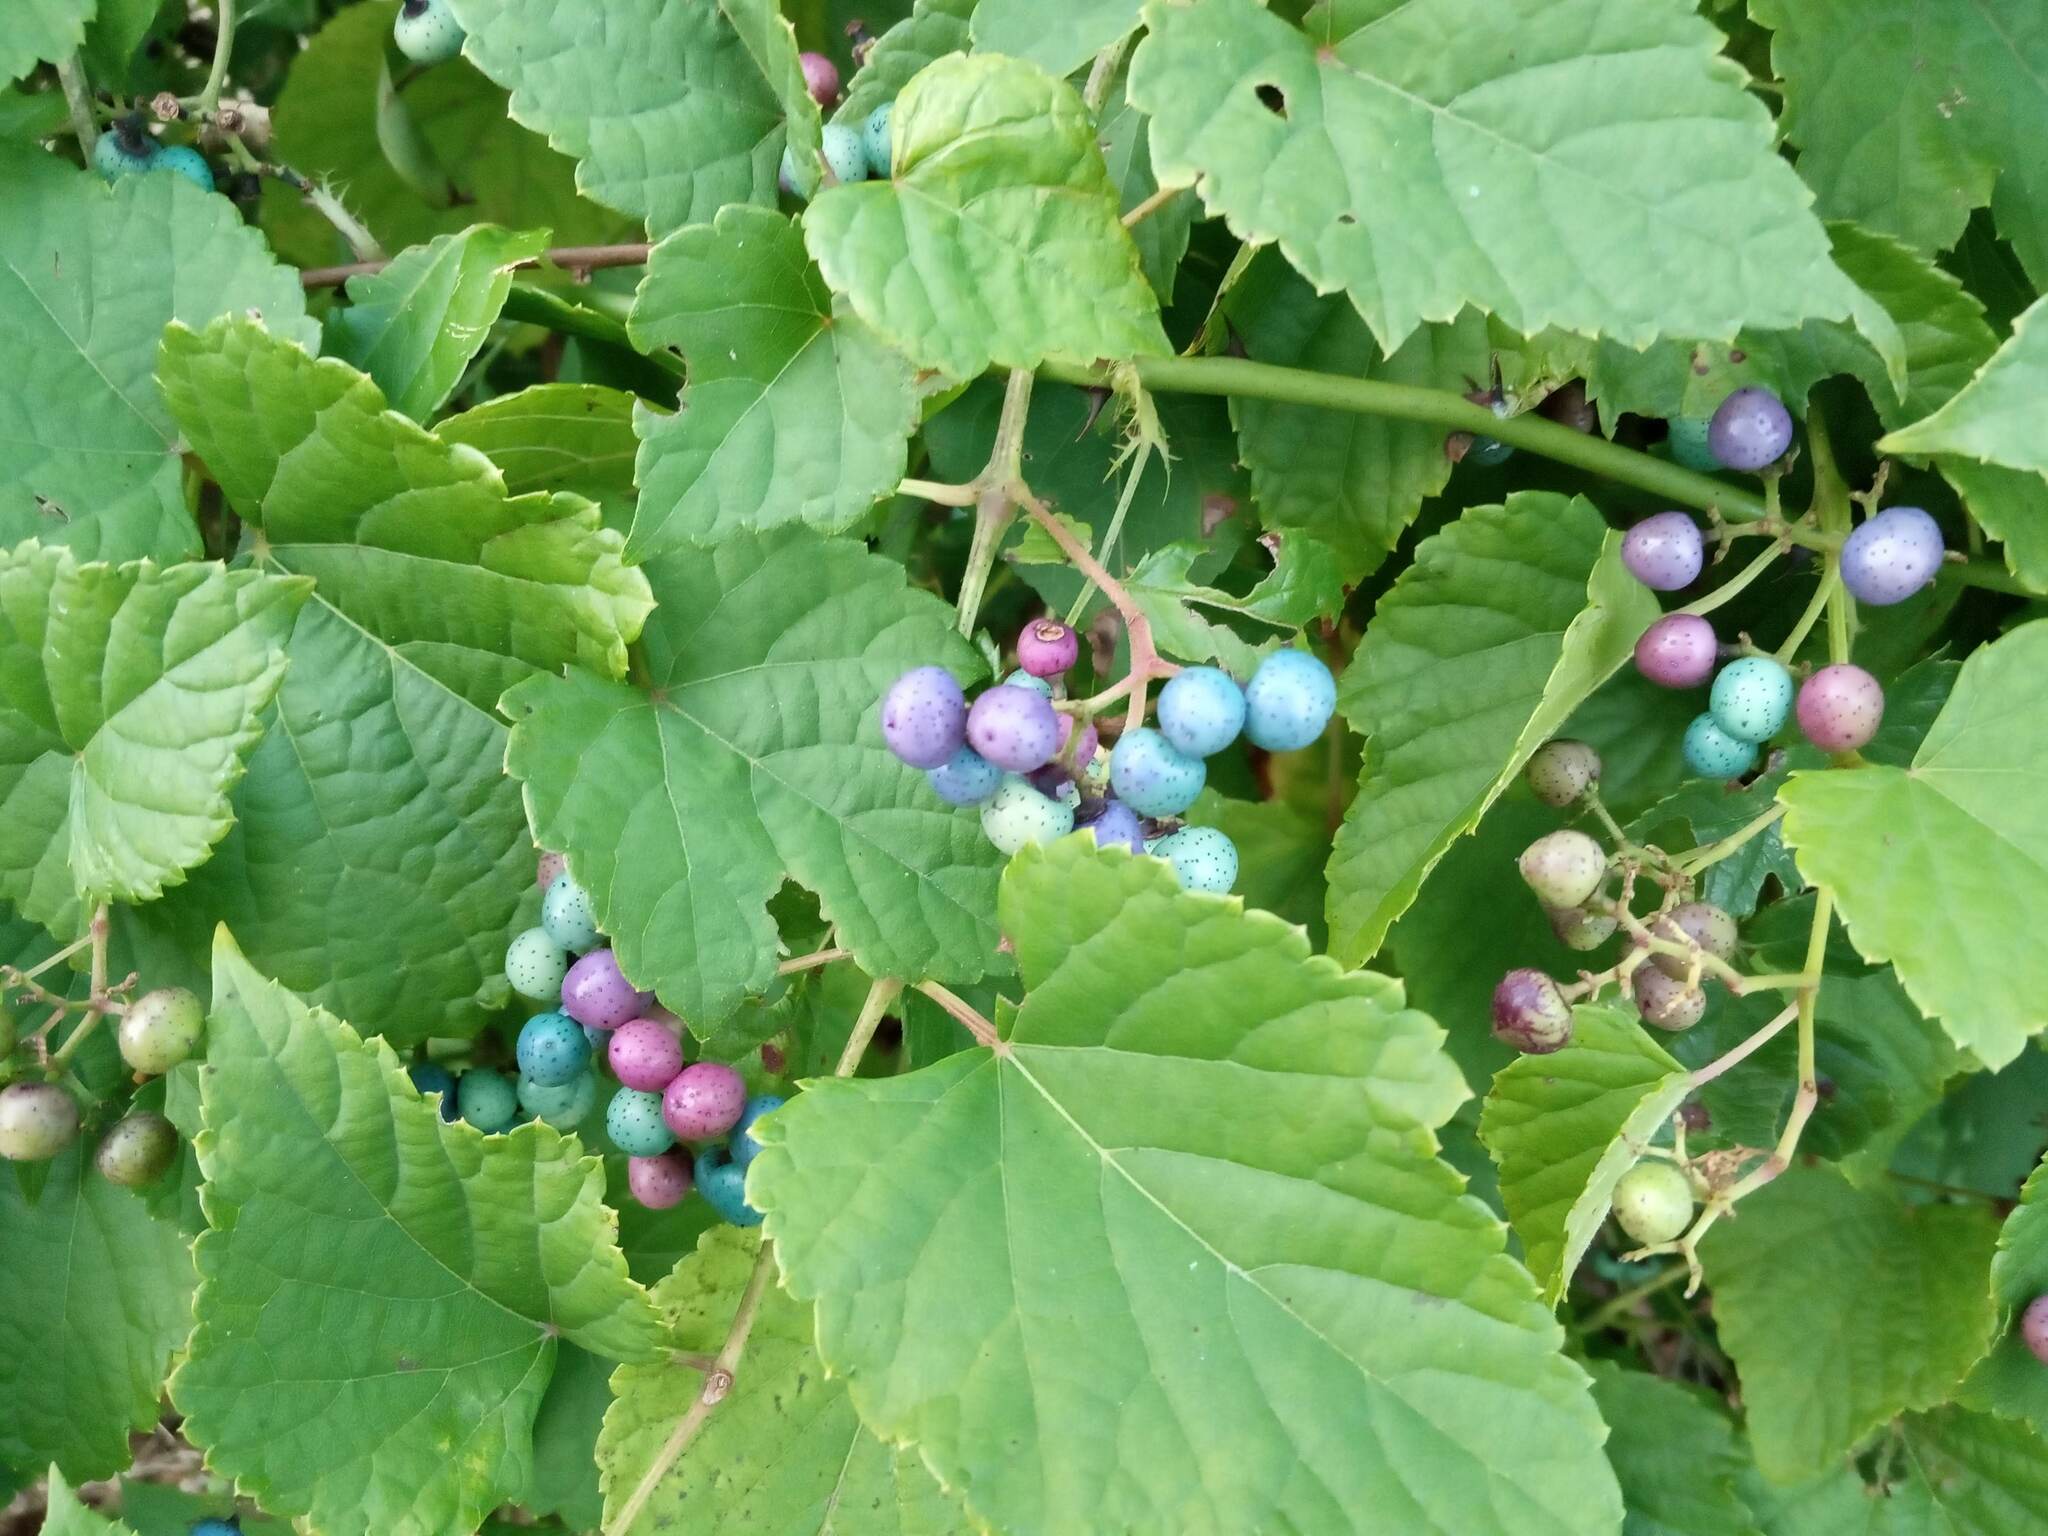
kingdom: Plantae
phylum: Tracheophyta
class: Magnoliopsida
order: Vitales
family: Vitaceae
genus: Ampelopsis
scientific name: Ampelopsis glandulosa
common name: Amur peppervine
